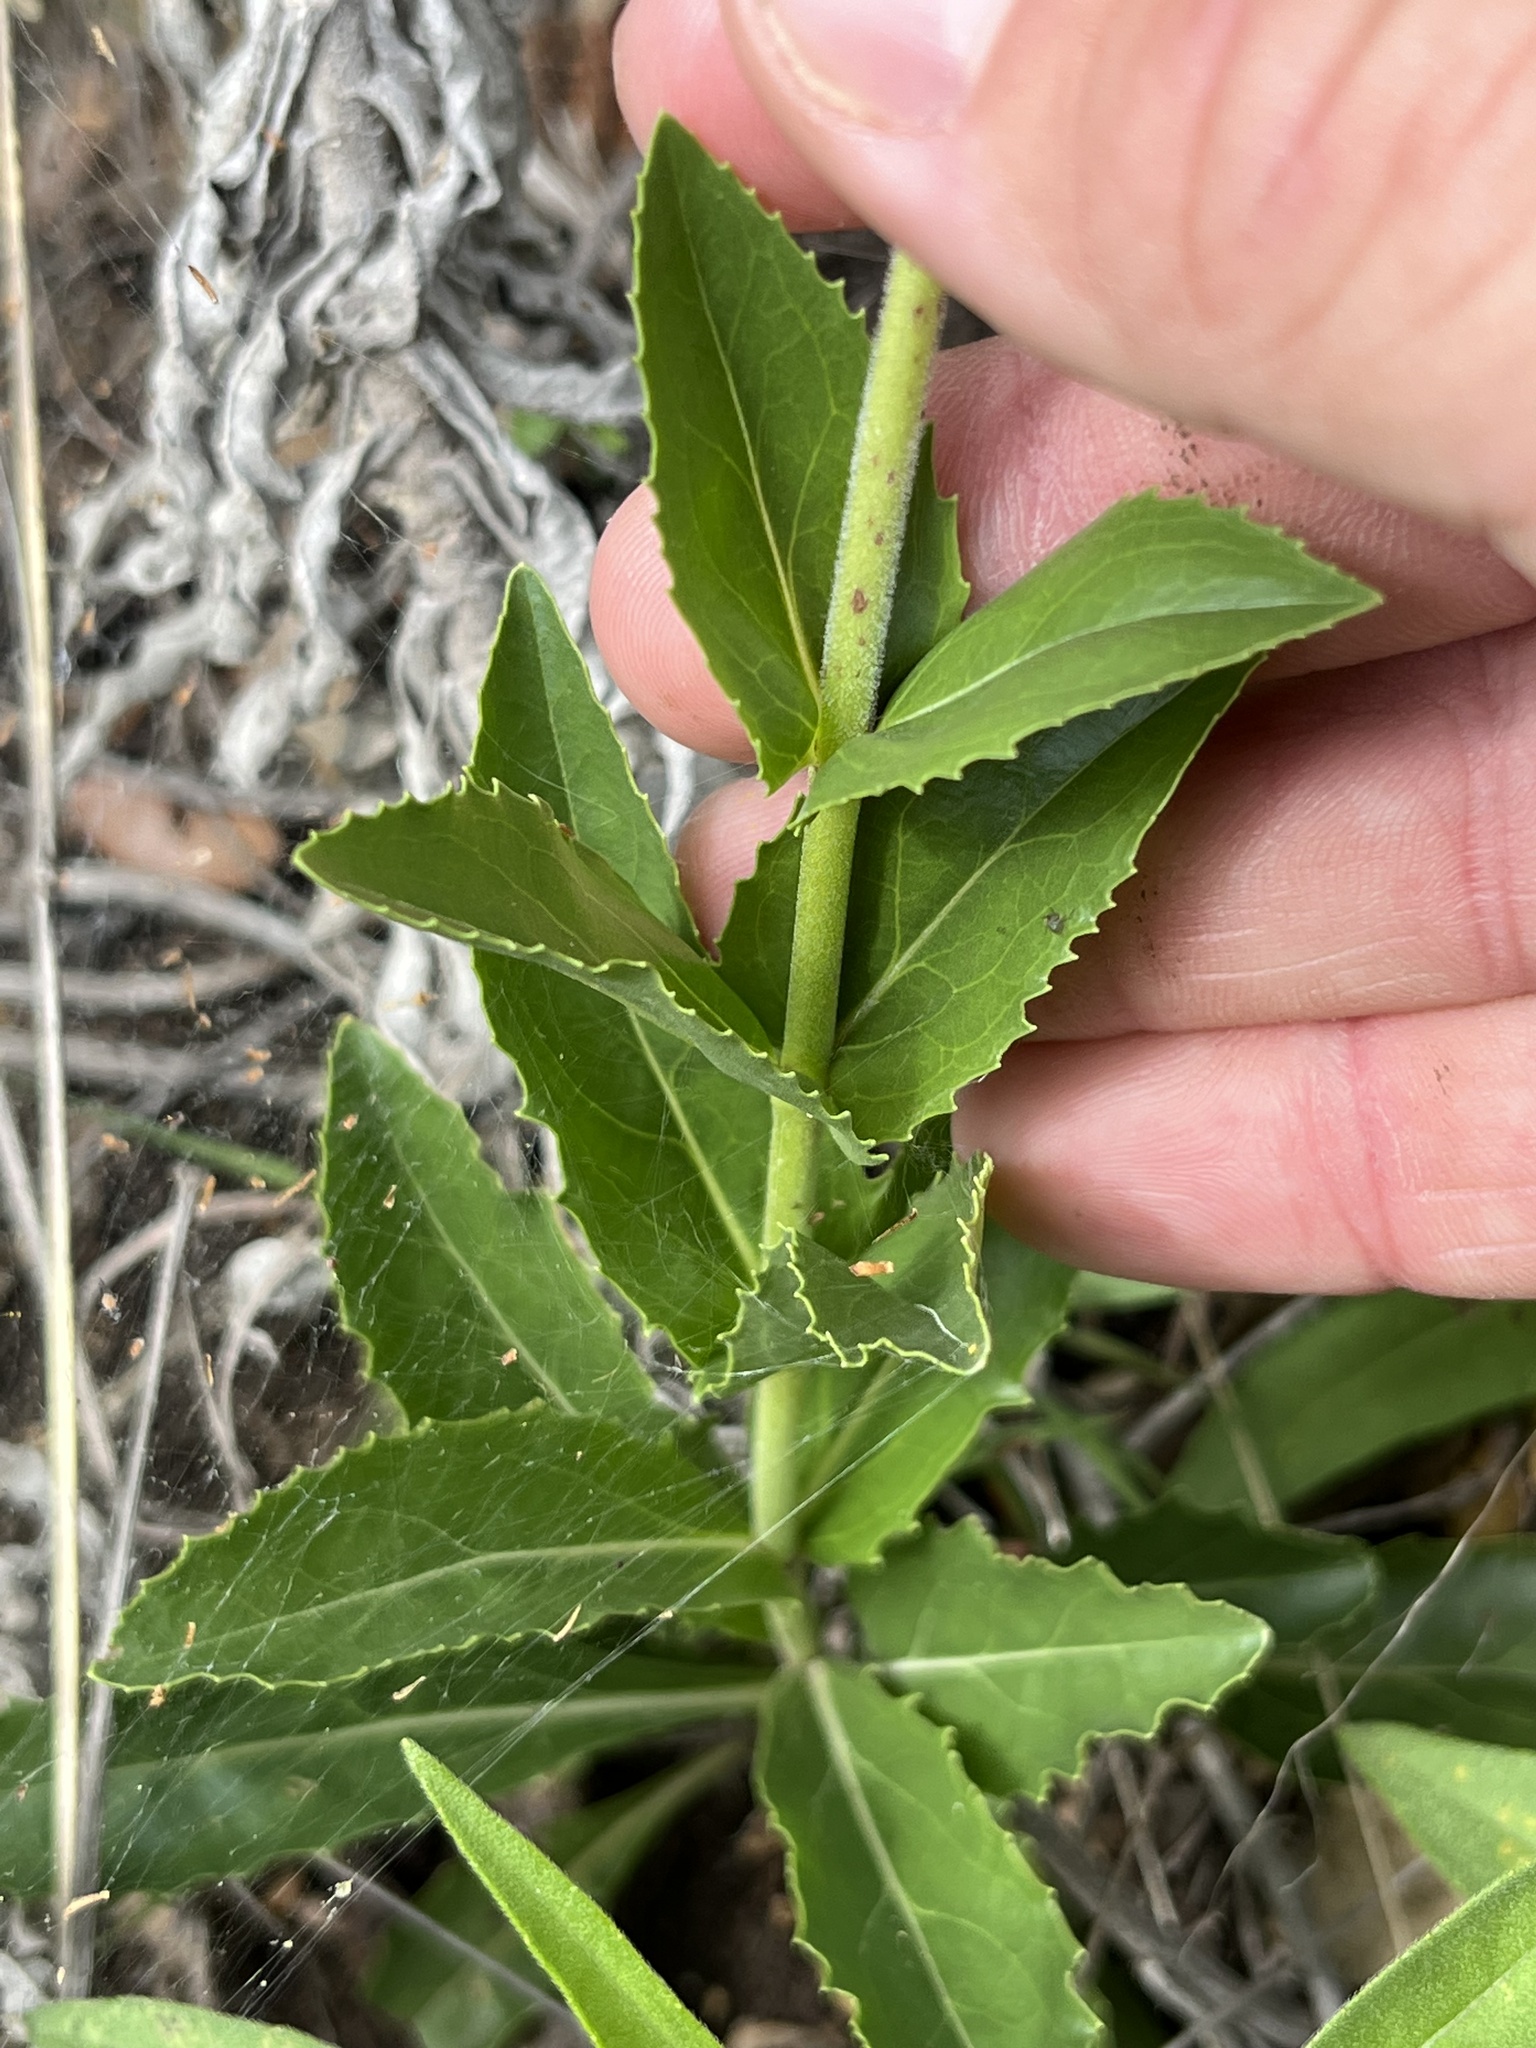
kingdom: Plantae
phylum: Tracheophyta
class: Magnoliopsida
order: Lamiales
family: Plantaginaceae
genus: Penstemon
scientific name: Penstemon cobaea
